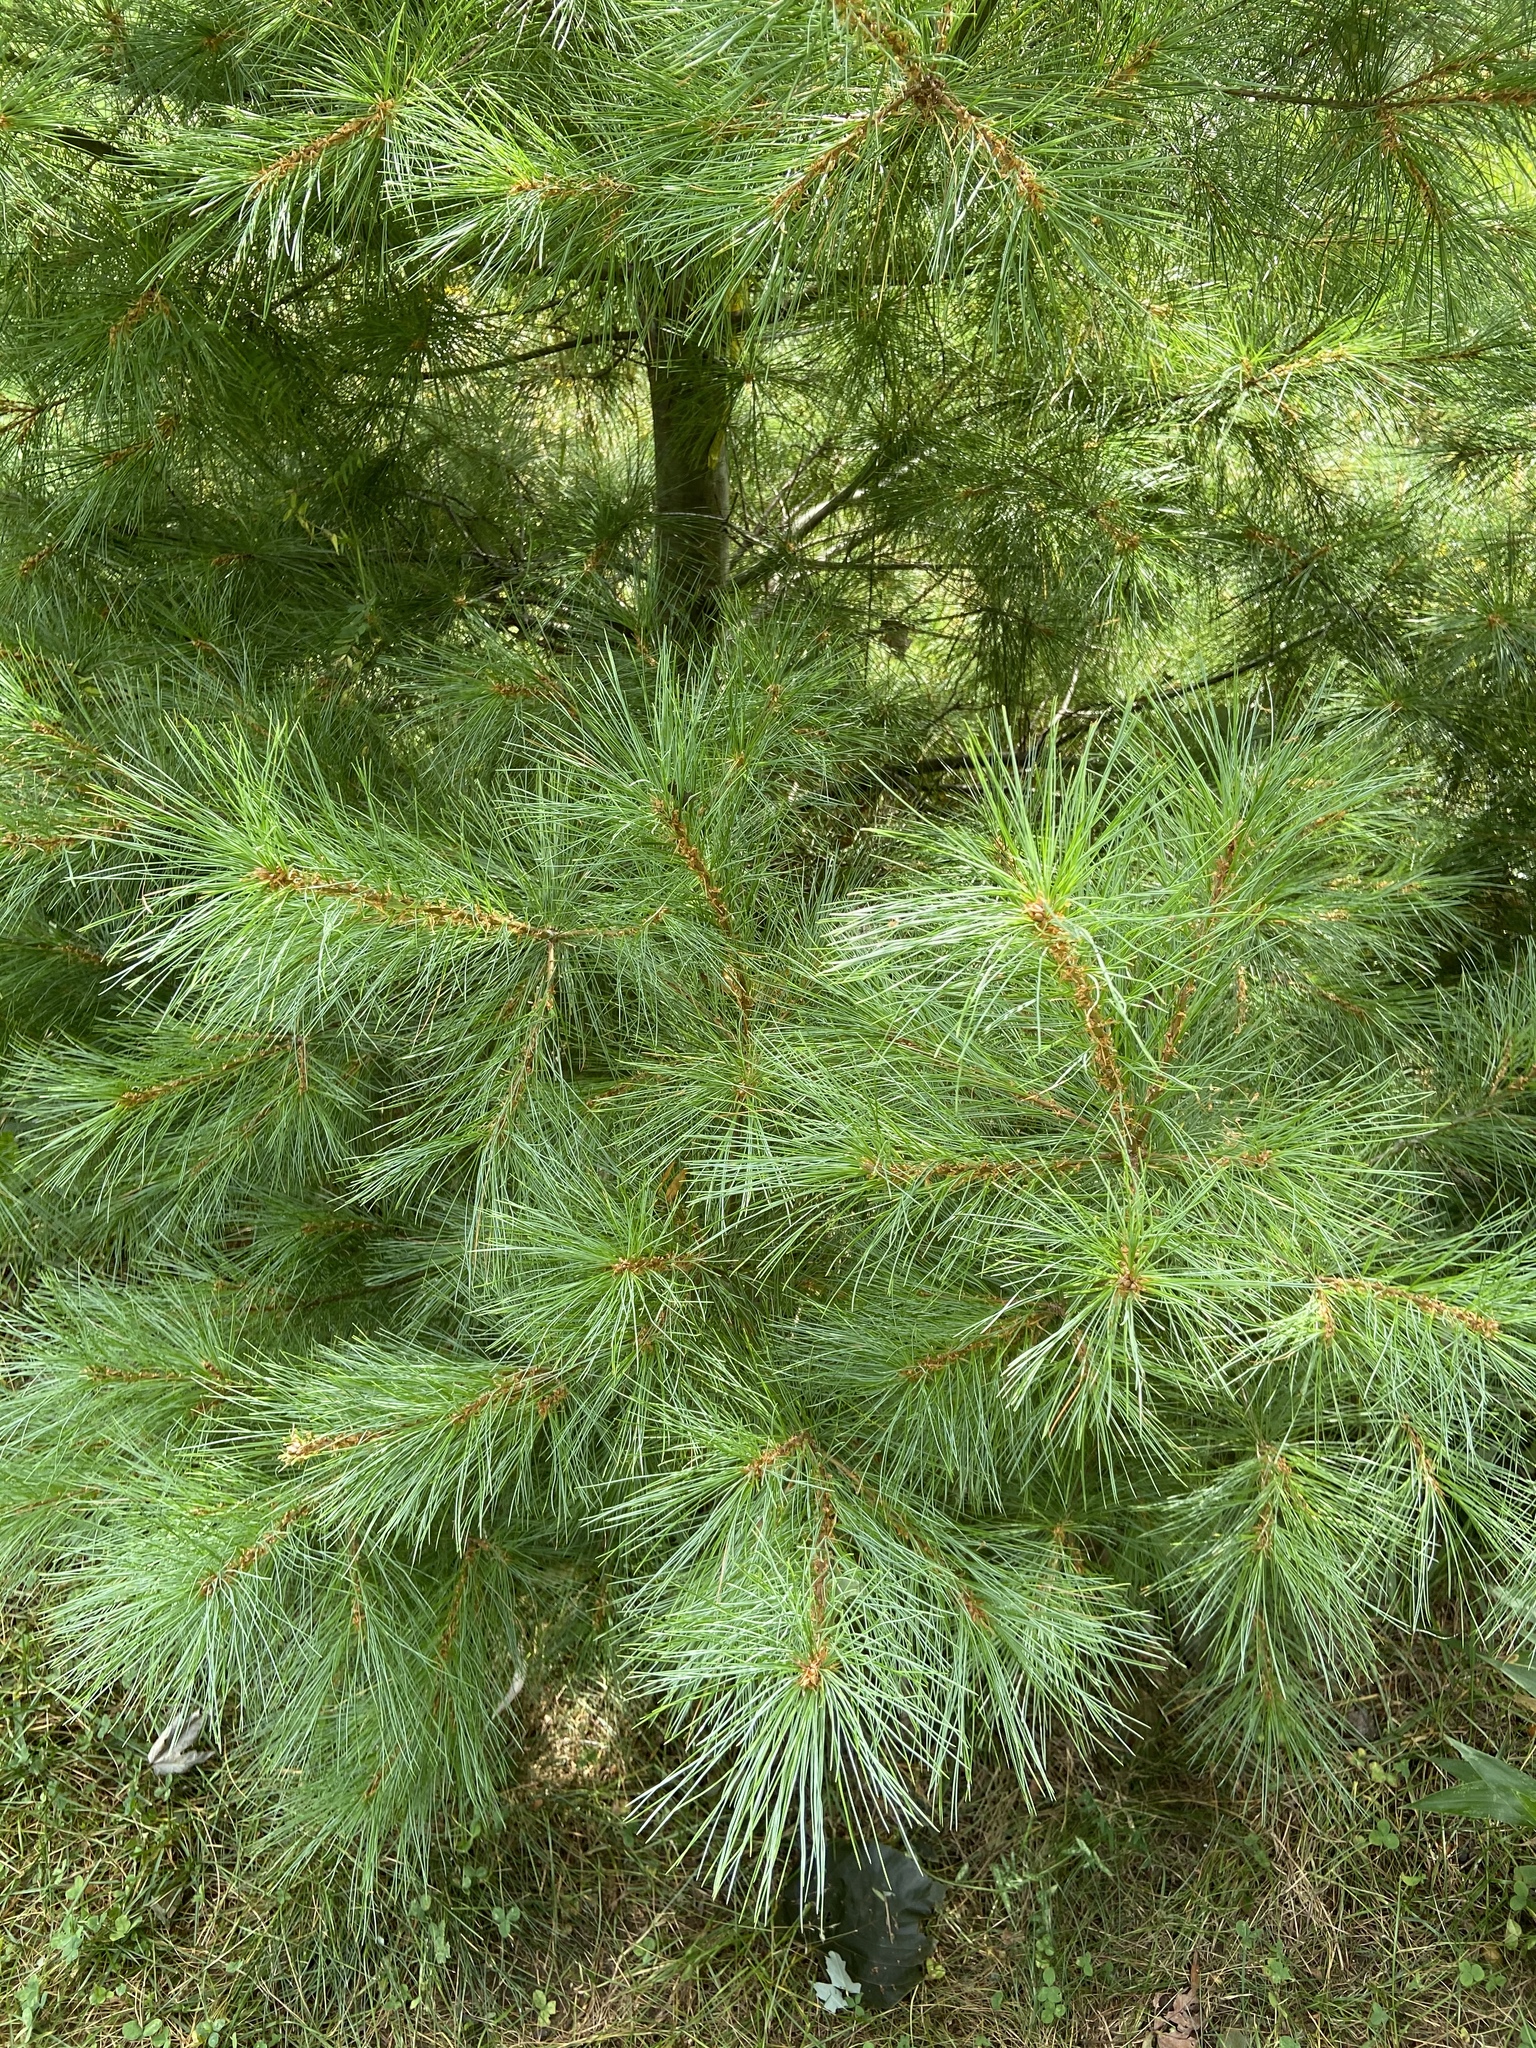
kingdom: Plantae
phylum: Tracheophyta
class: Pinopsida
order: Pinales
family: Pinaceae
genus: Pinus
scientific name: Pinus strobus
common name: Weymouth pine
